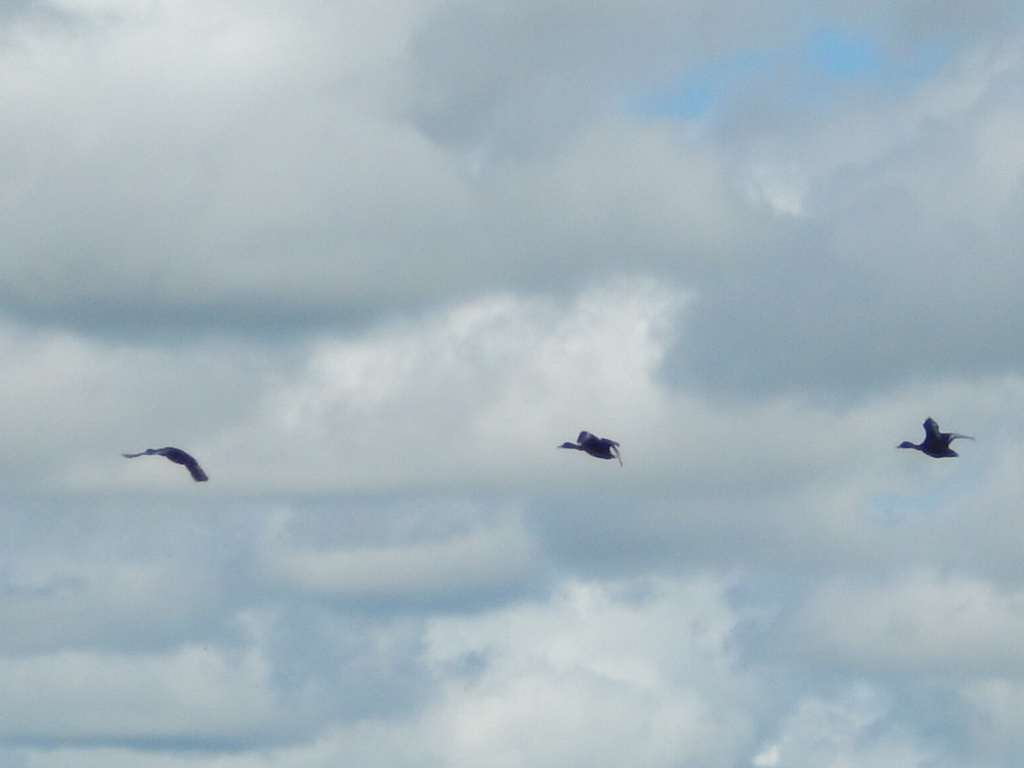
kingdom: Animalia
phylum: Chordata
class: Aves
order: Anseriformes
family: Anatidae
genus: Dendrocygna
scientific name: Dendrocygna autumnalis
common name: Black-bellied whistling duck
